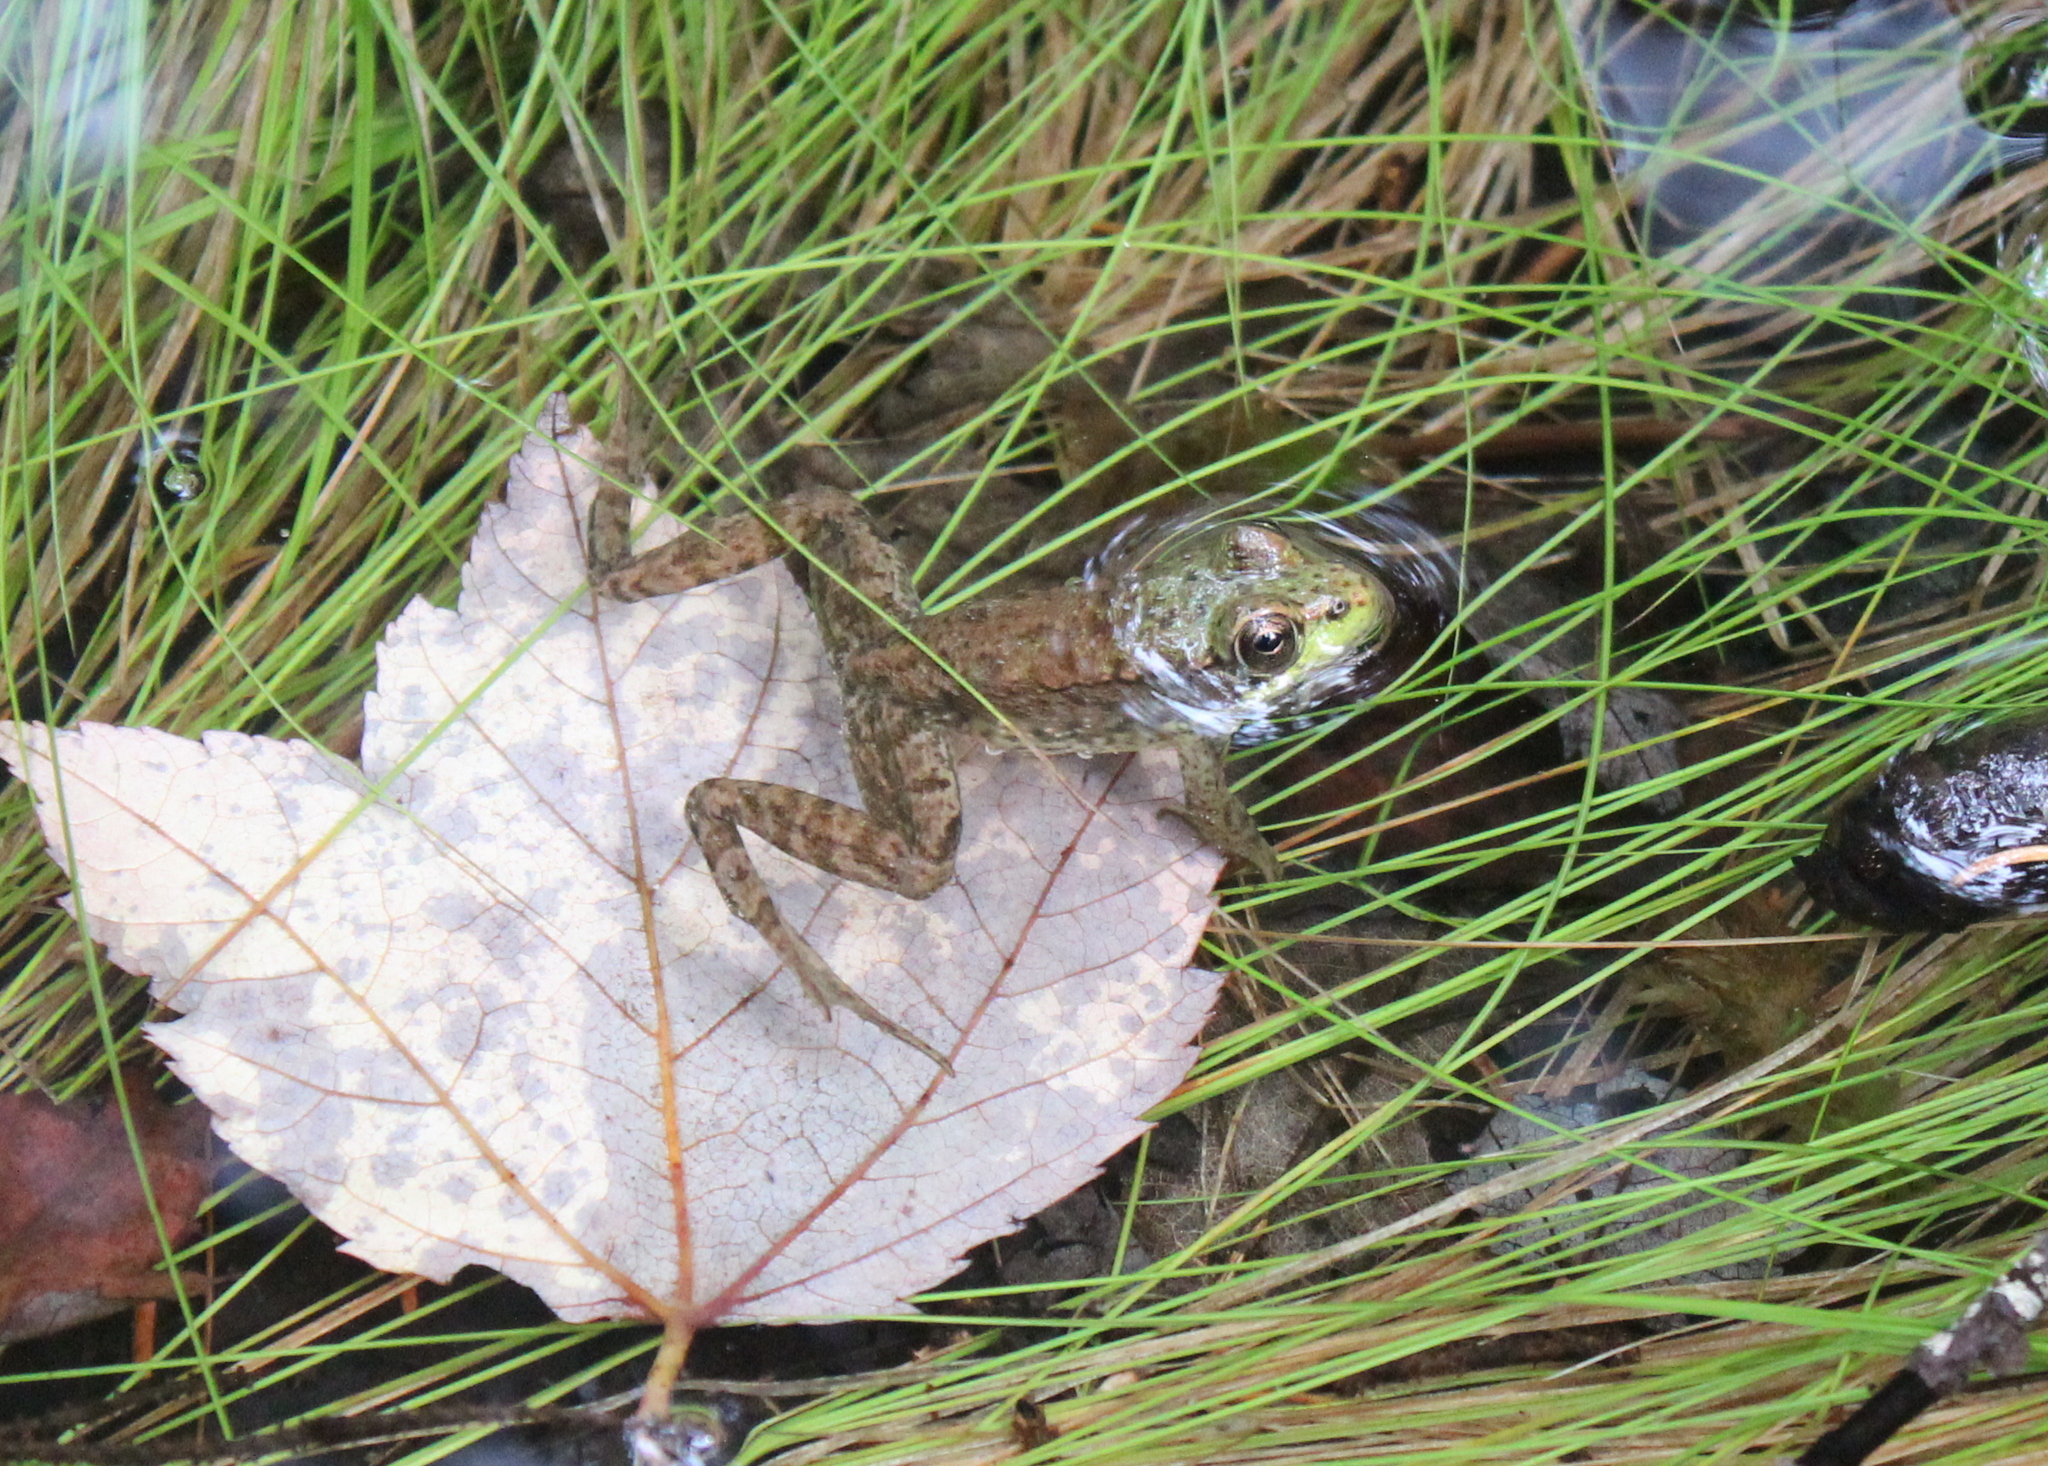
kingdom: Animalia
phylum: Chordata
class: Amphibia
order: Anura
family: Ranidae
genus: Lithobates
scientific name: Lithobates clamitans
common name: Green frog
